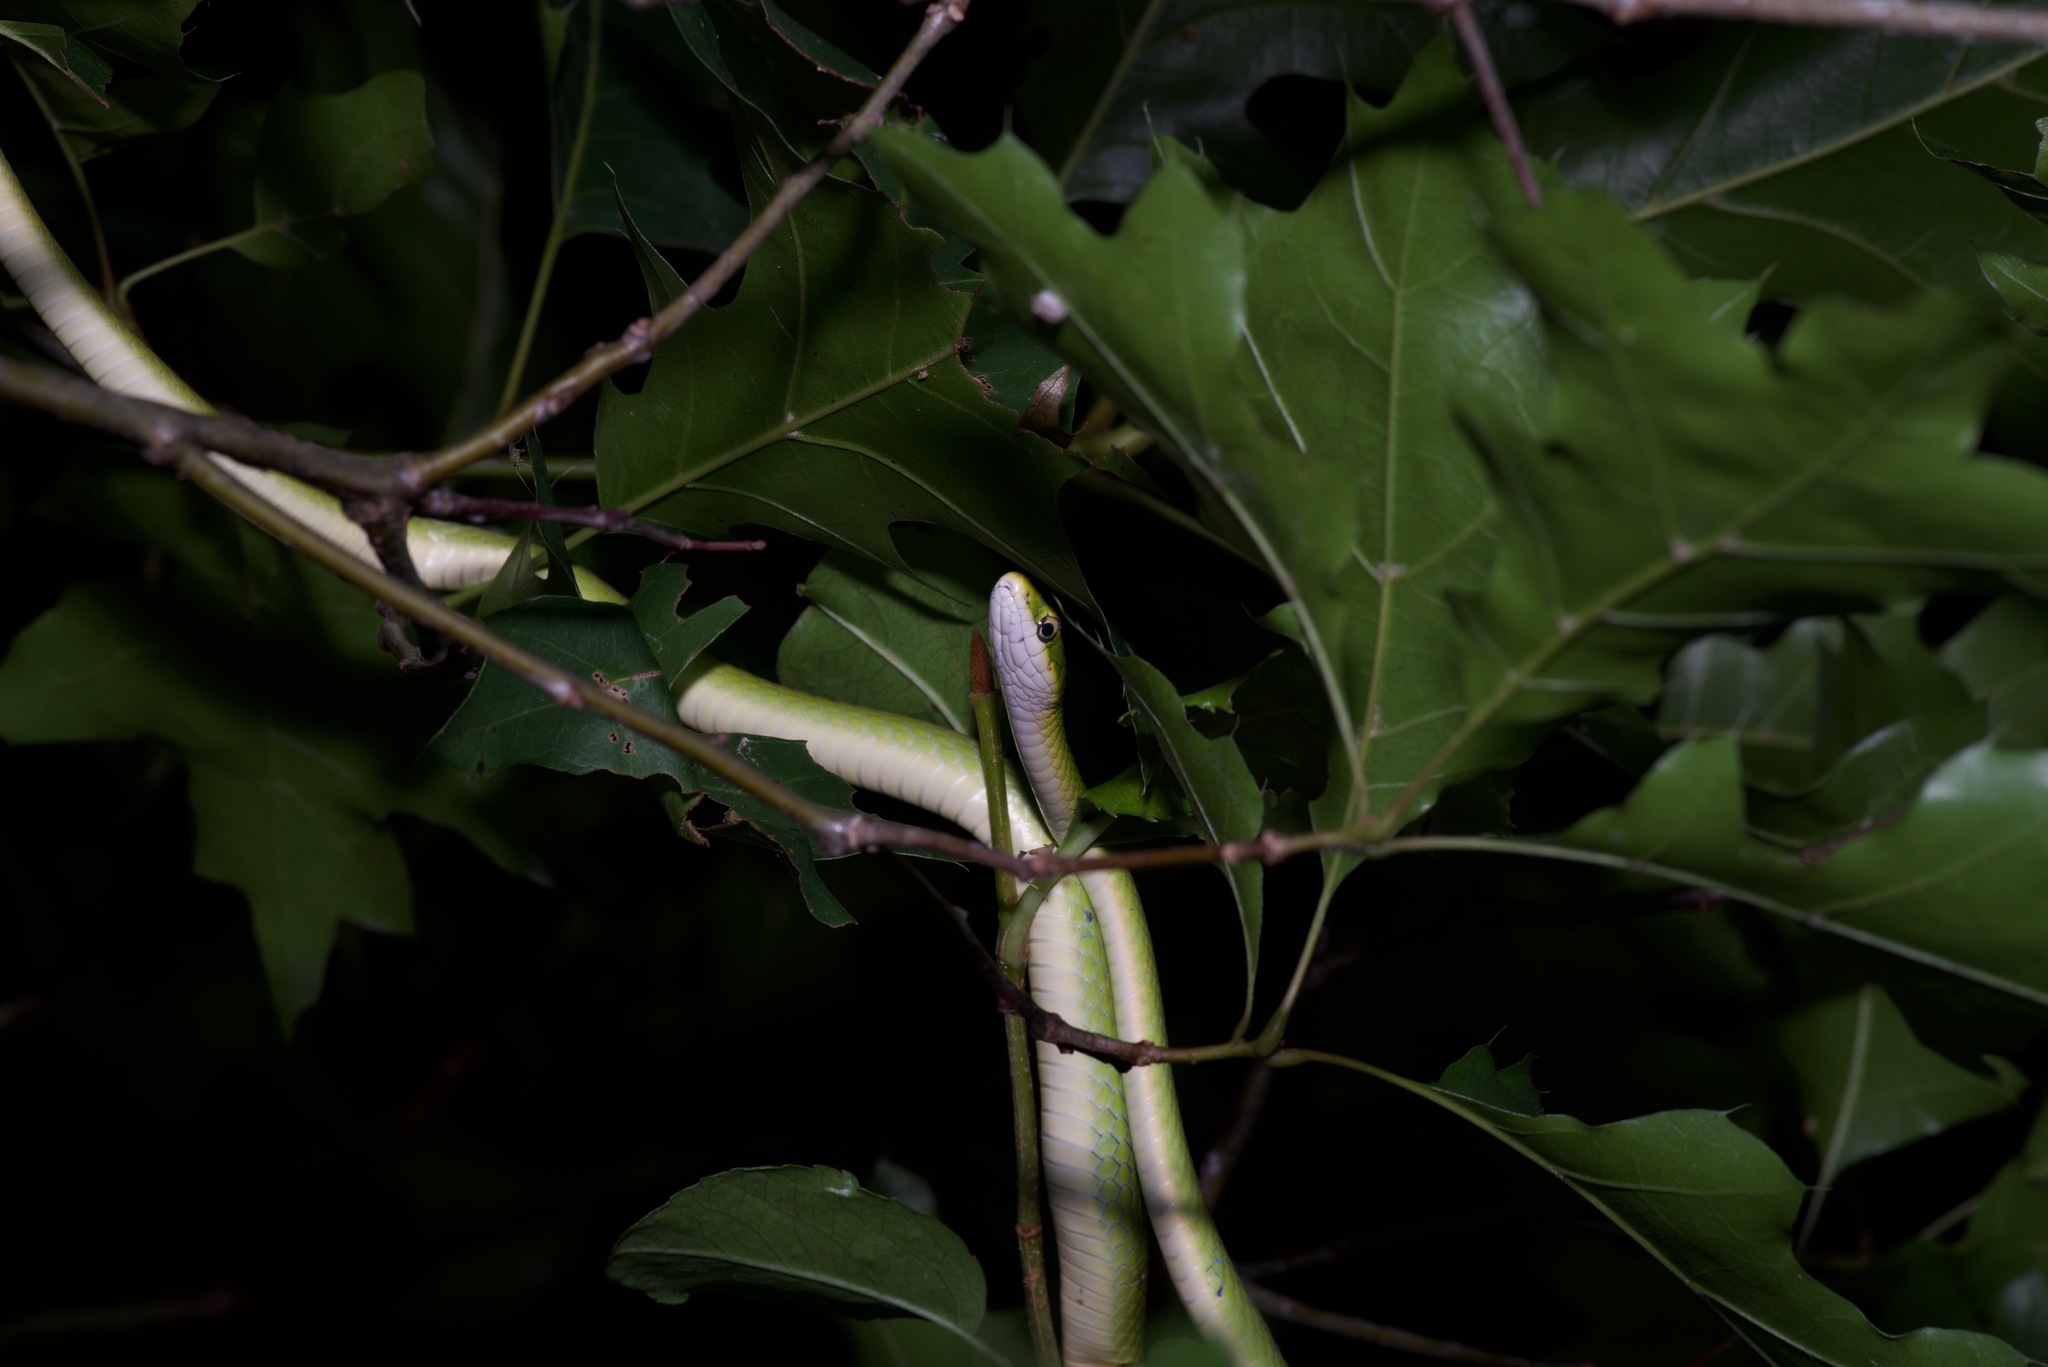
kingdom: Animalia
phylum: Chordata
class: Squamata
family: Colubridae
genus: Opheodrys
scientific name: Opheodrys aestivus
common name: Rough greensnake
